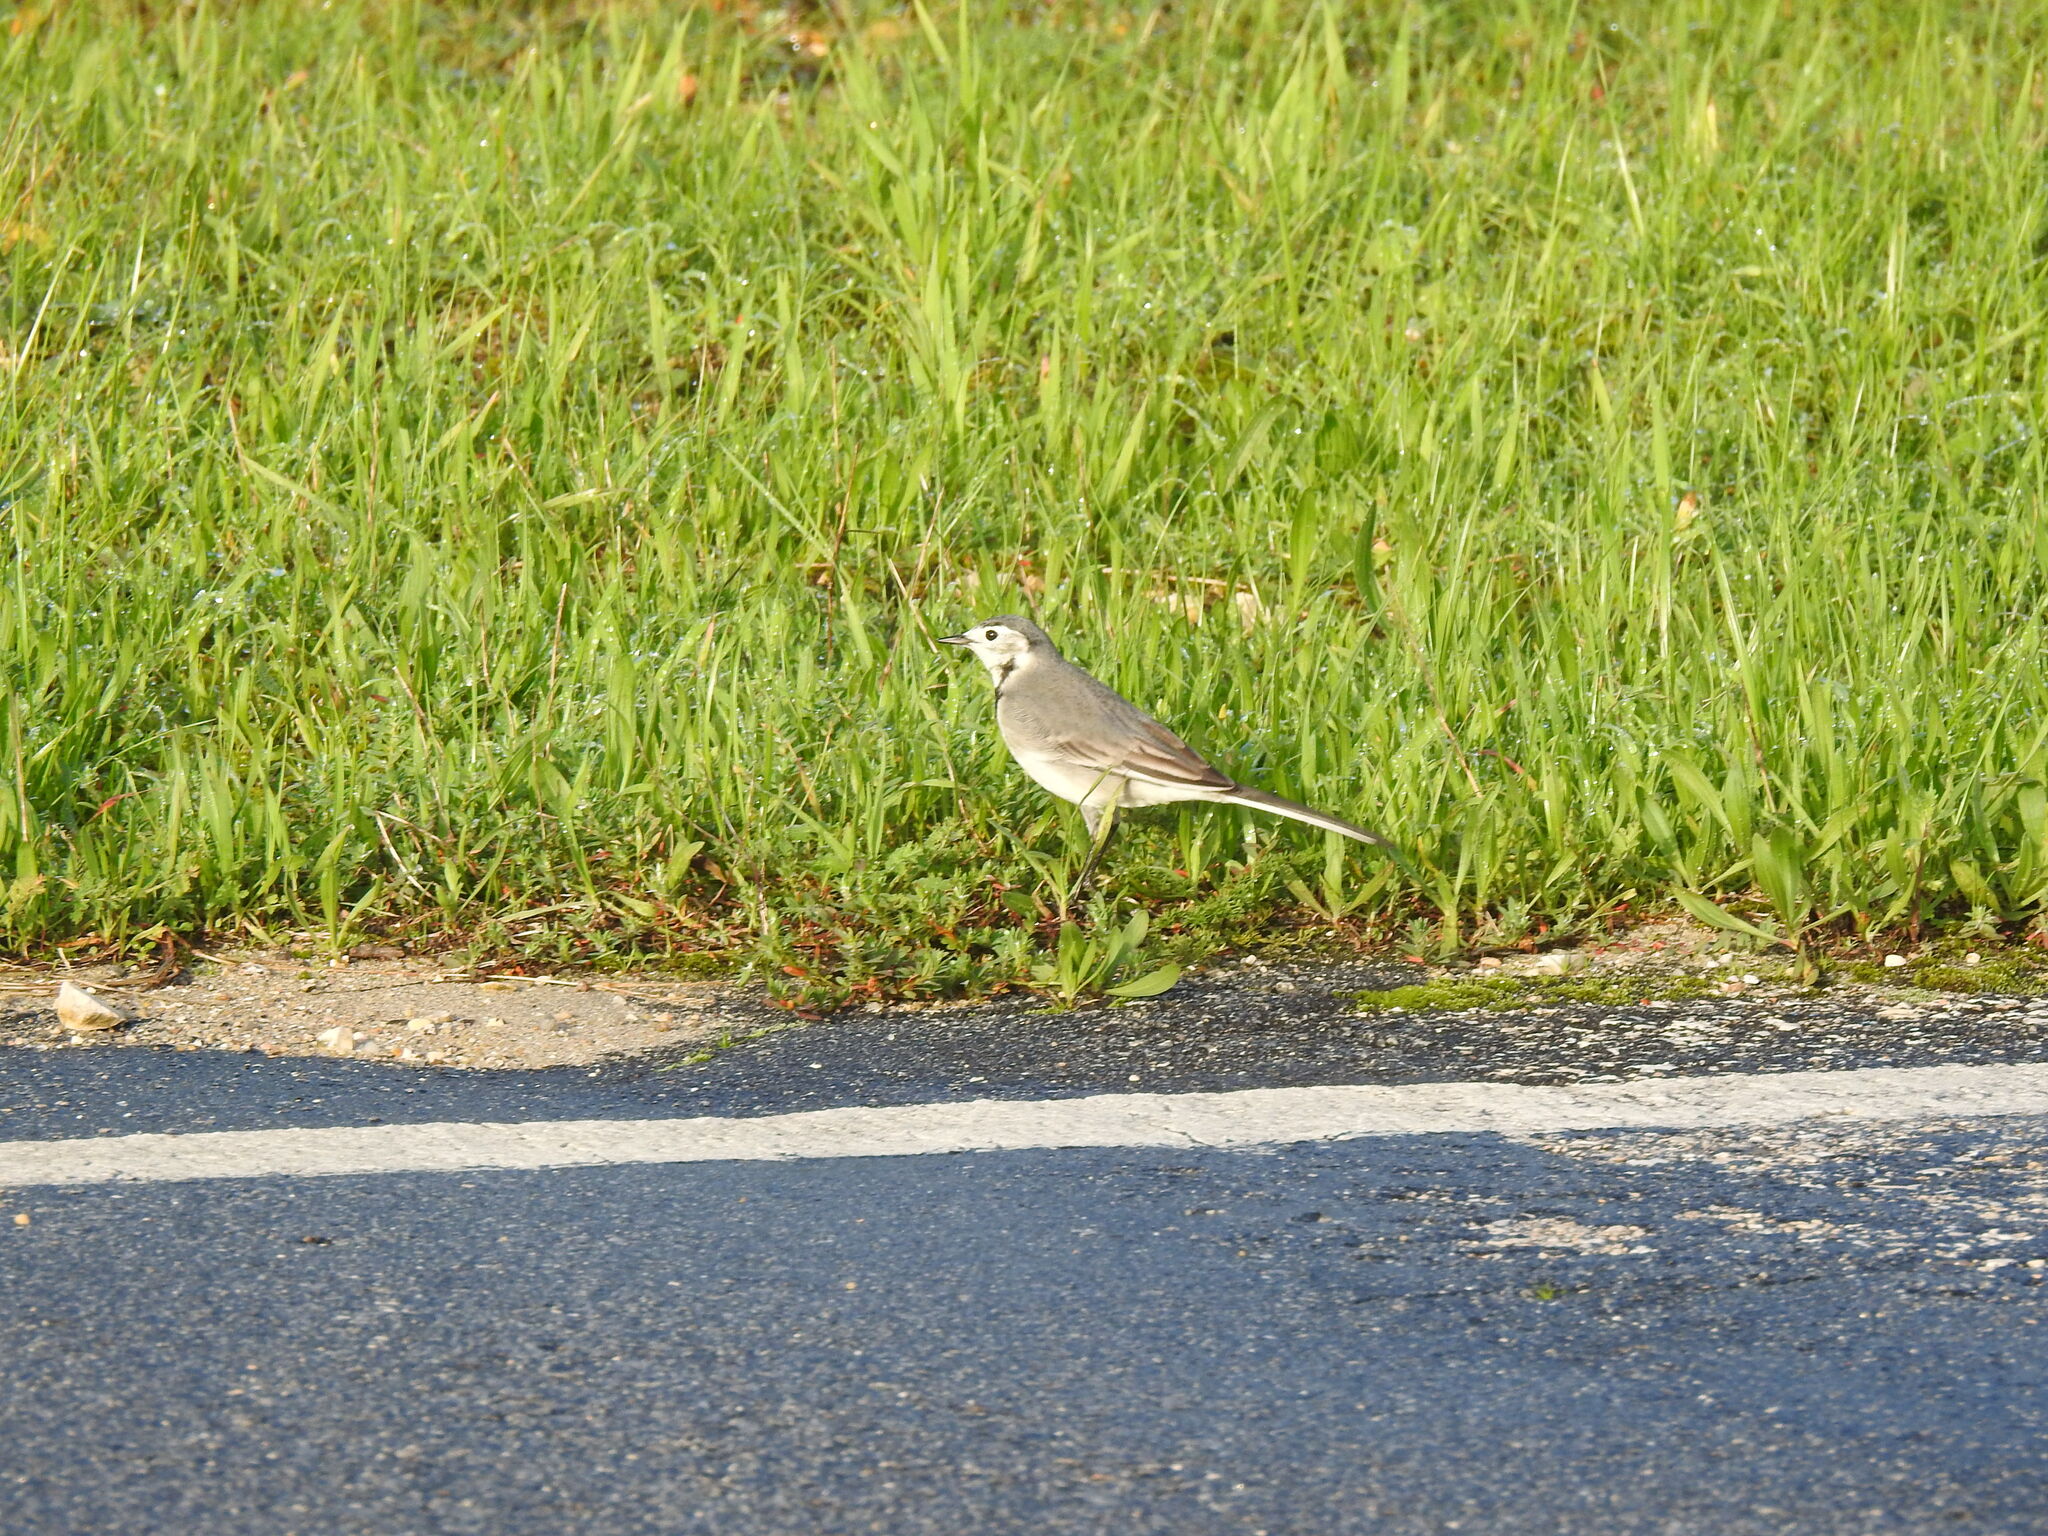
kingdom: Animalia
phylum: Chordata
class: Aves
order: Passeriformes
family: Motacillidae
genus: Motacilla
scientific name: Motacilla alba
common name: White wagtail
